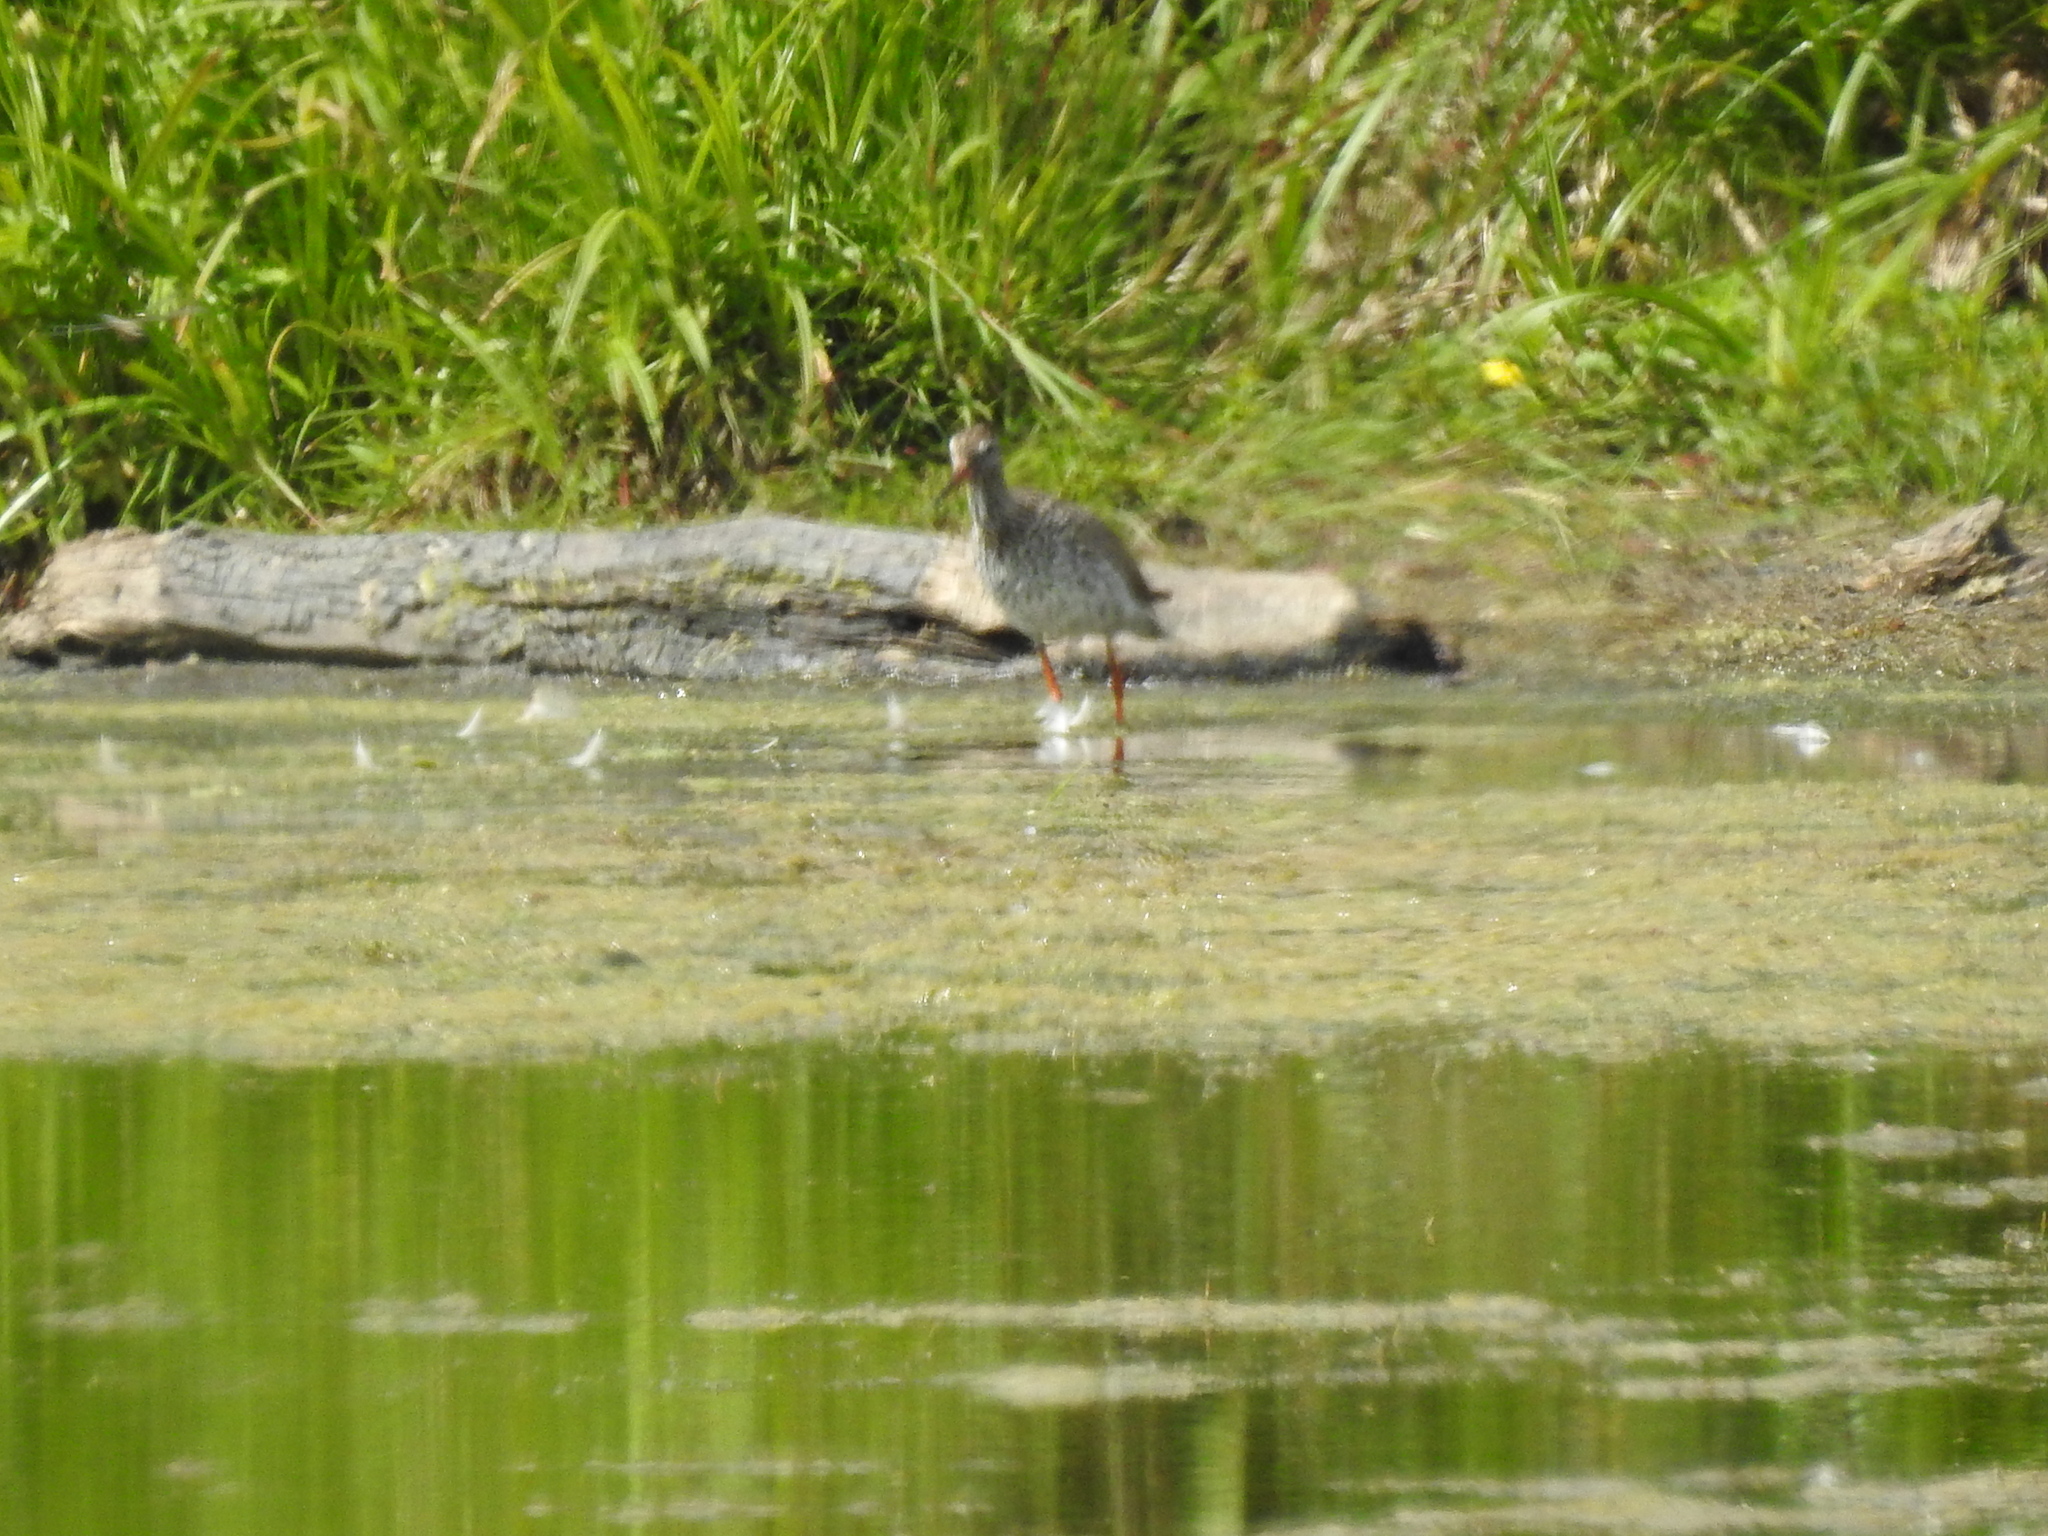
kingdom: Animalia
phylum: Chordata
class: Aves
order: Charadriiformes
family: Scolopacidae
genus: Tringa
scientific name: Tringa totanus
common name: Common redshank
